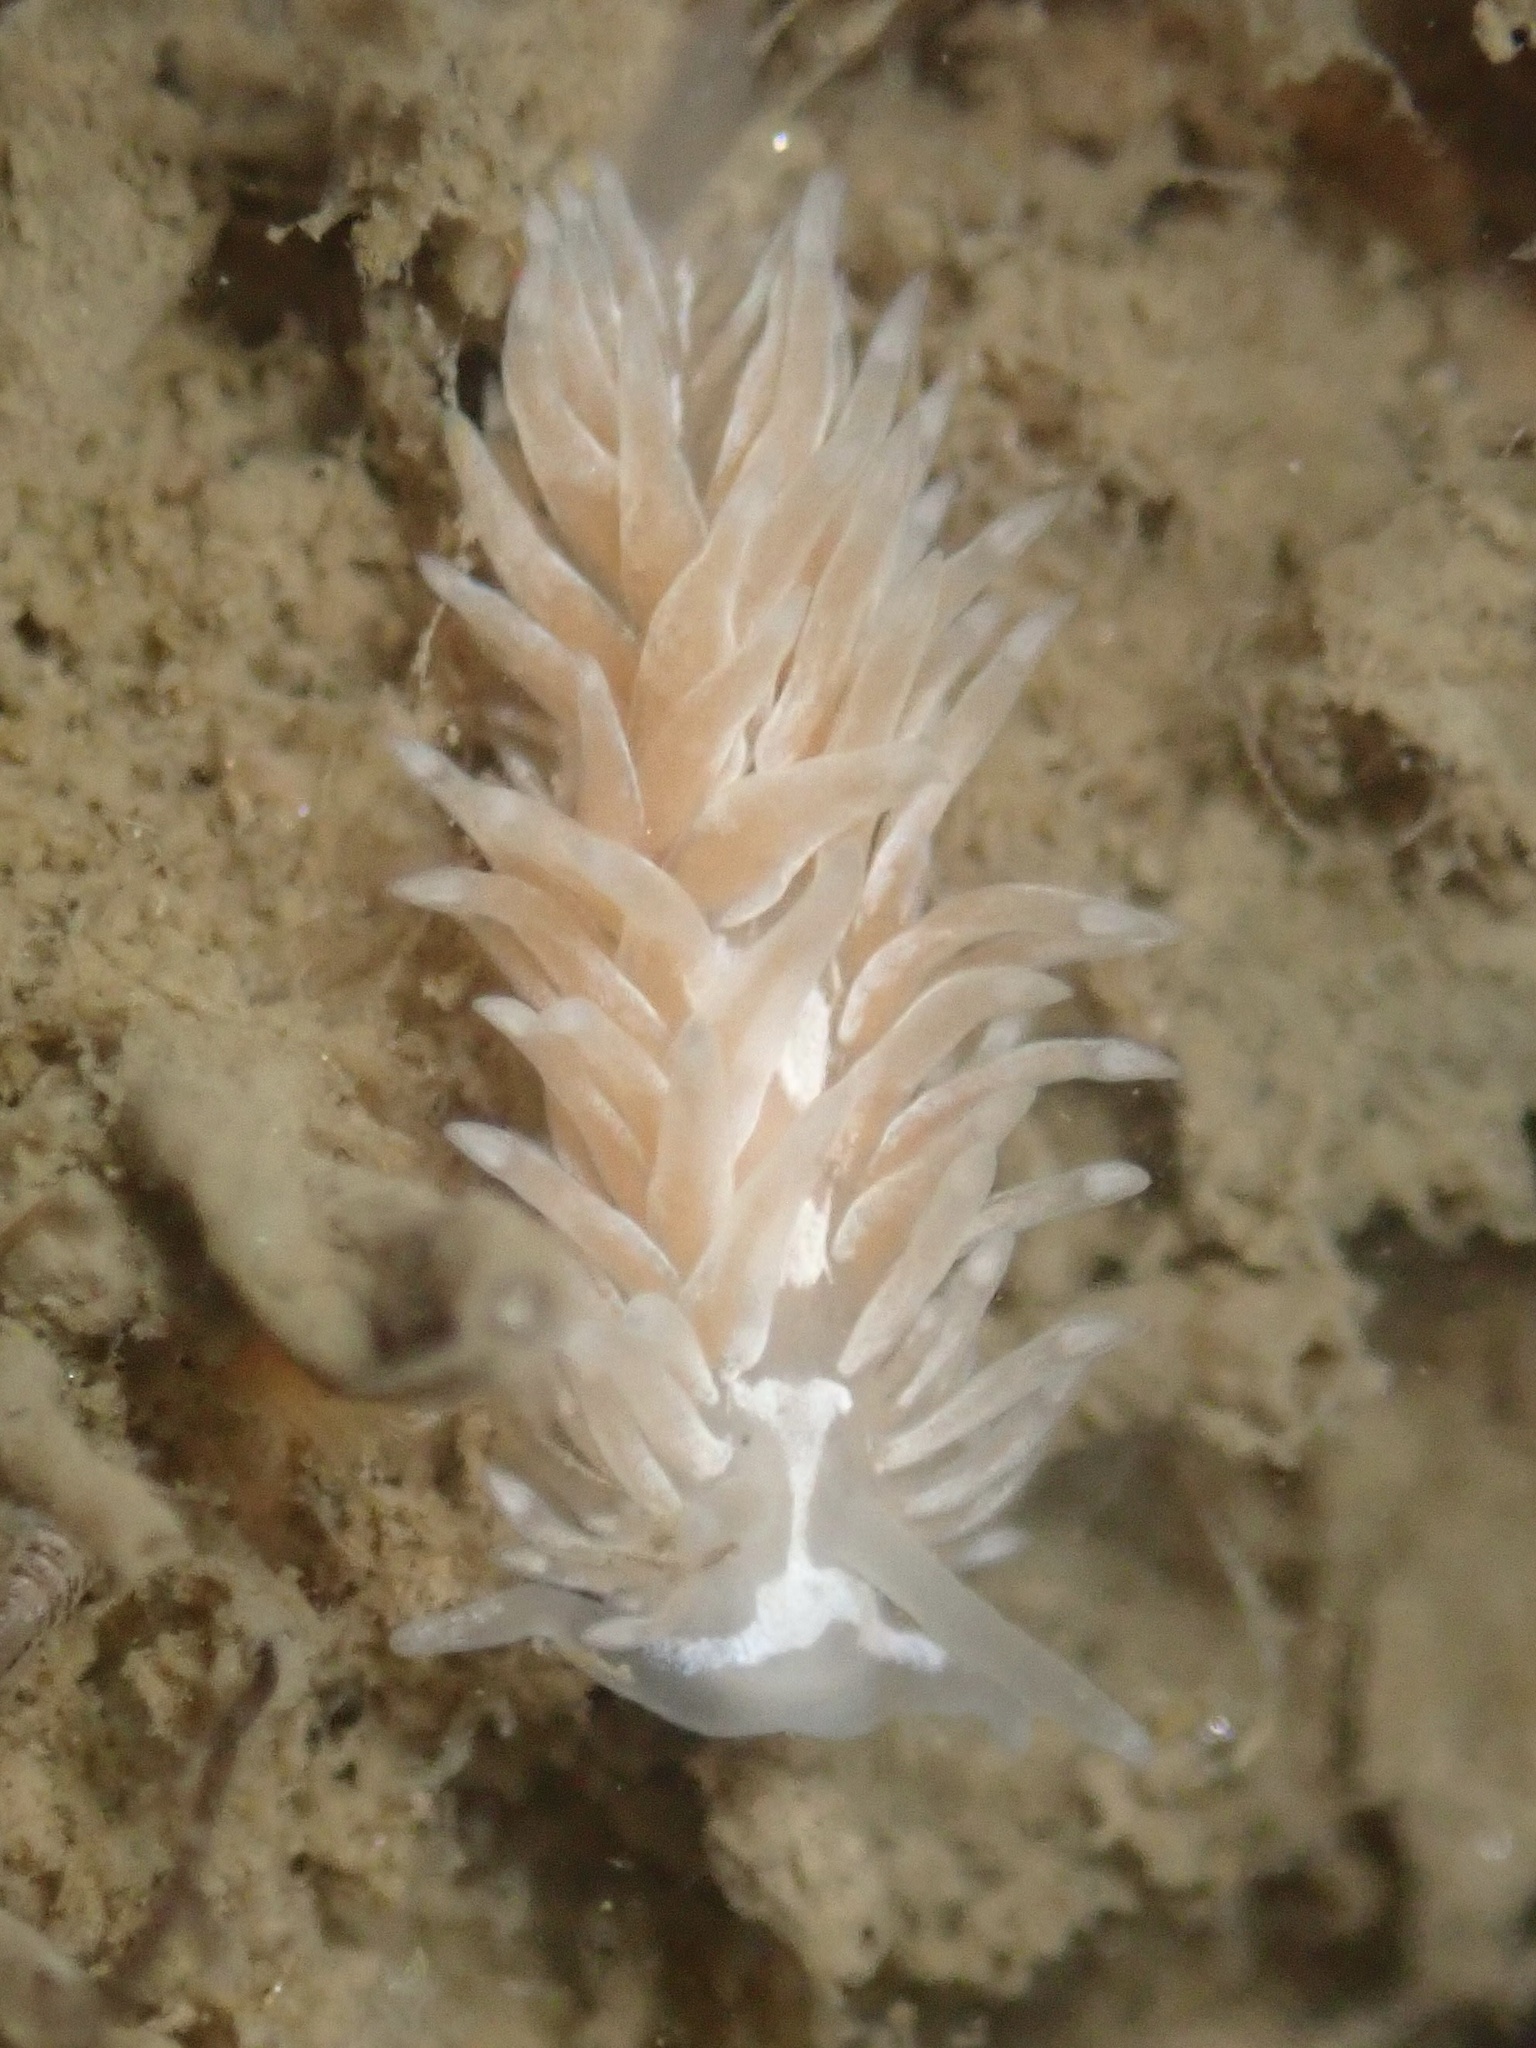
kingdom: Animalia
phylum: Mollusca
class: Gastropoda
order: Nudibranchia
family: Aeolidiidae
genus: Aeolidia
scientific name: Aeolidia loui
